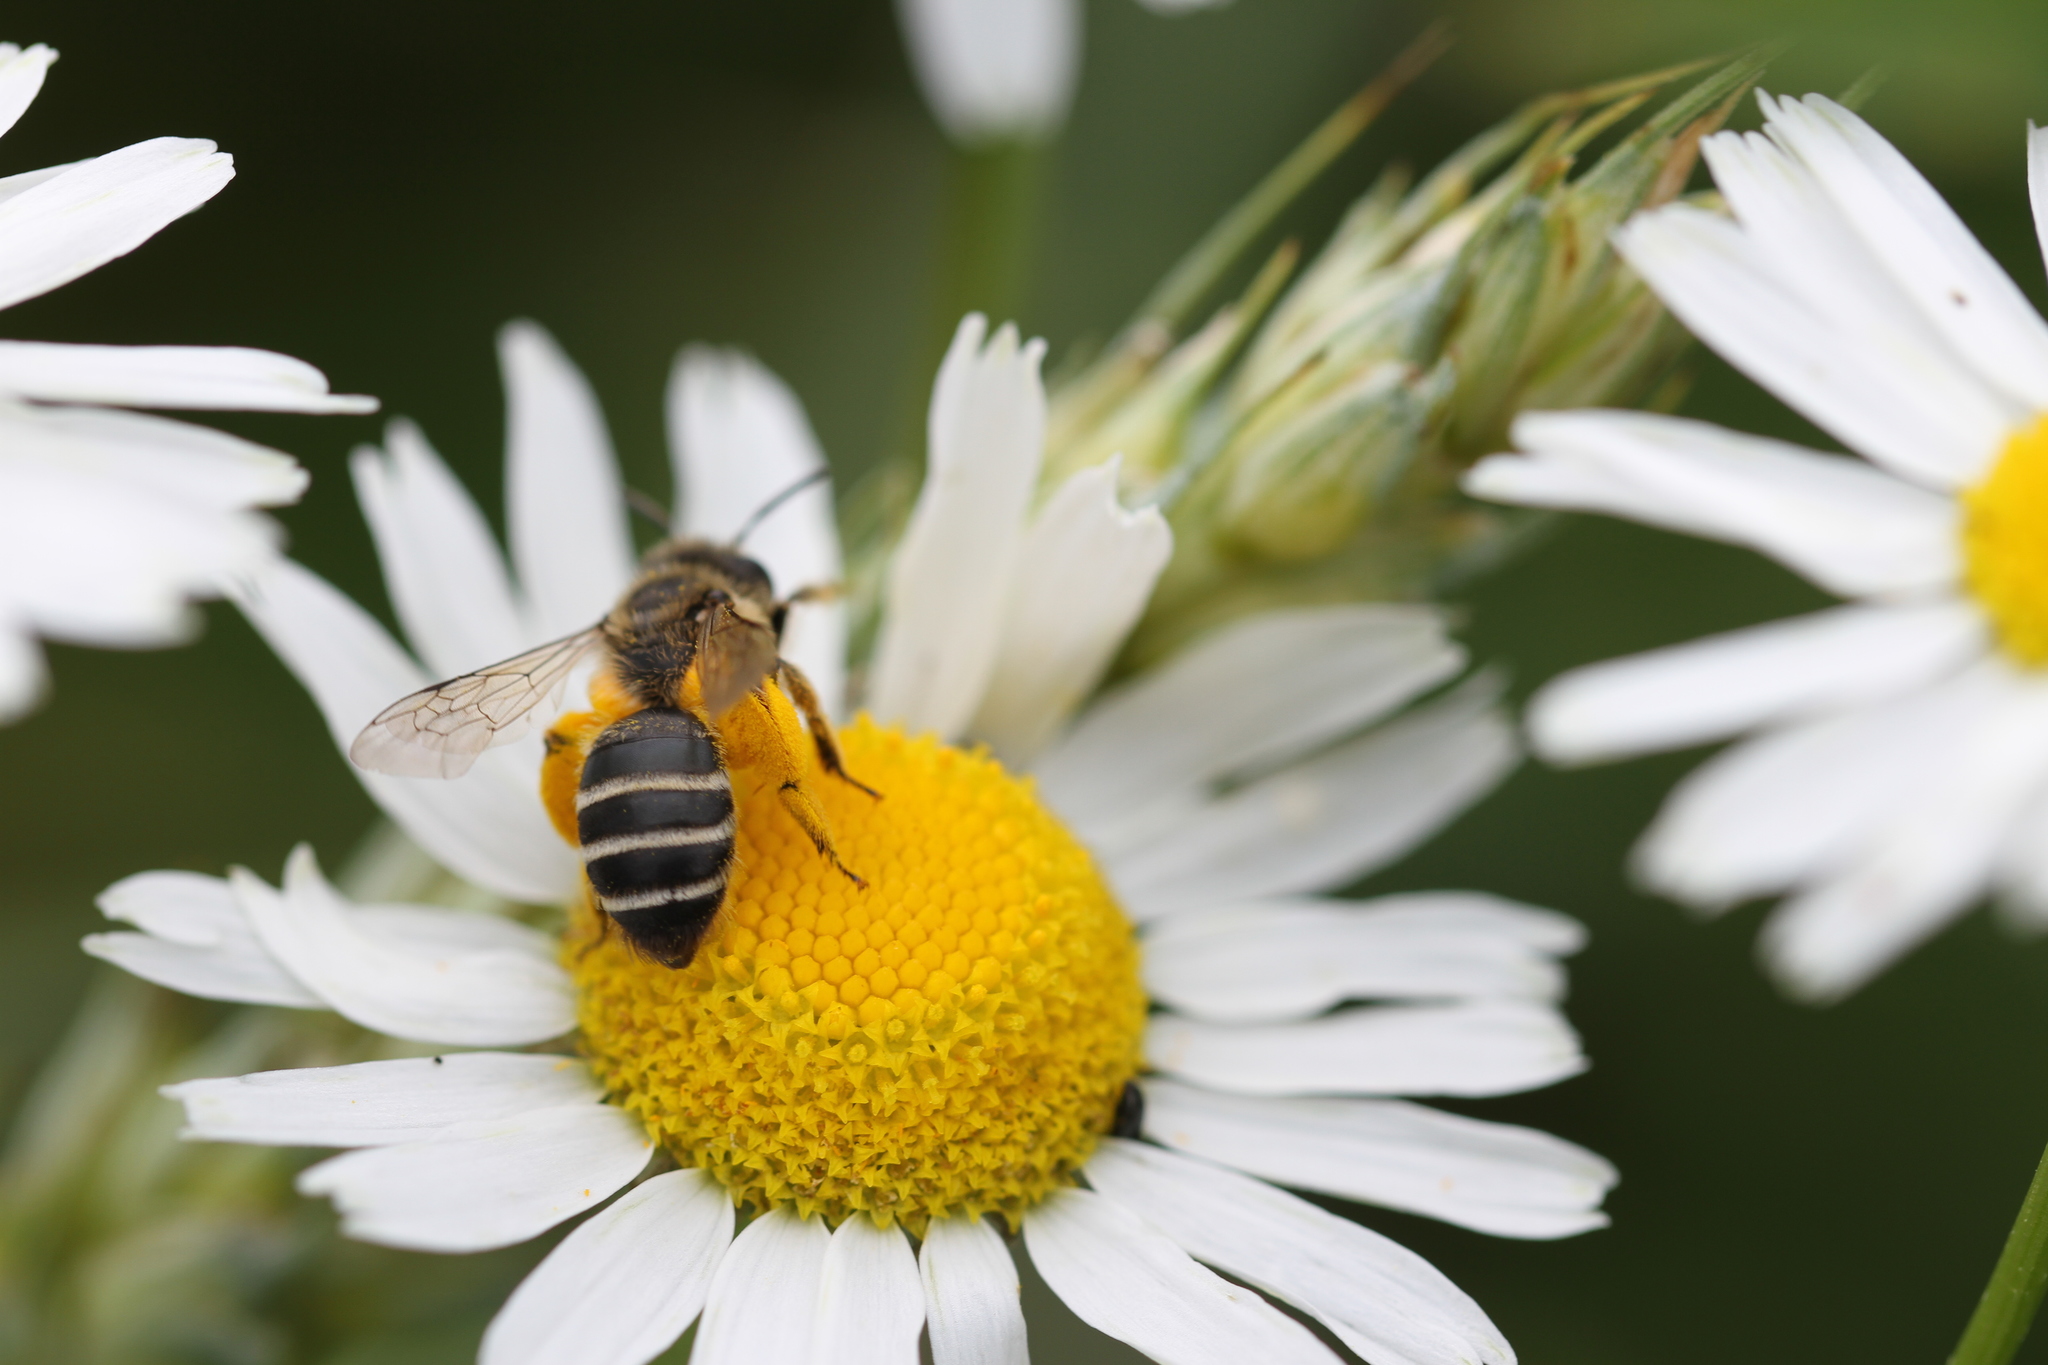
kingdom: Animalia
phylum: Arthropoda
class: Insecta
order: Hymenoptera
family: Andrenidae
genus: Andrena
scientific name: Andrena flavipes
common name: Yellow-legged mining bee
